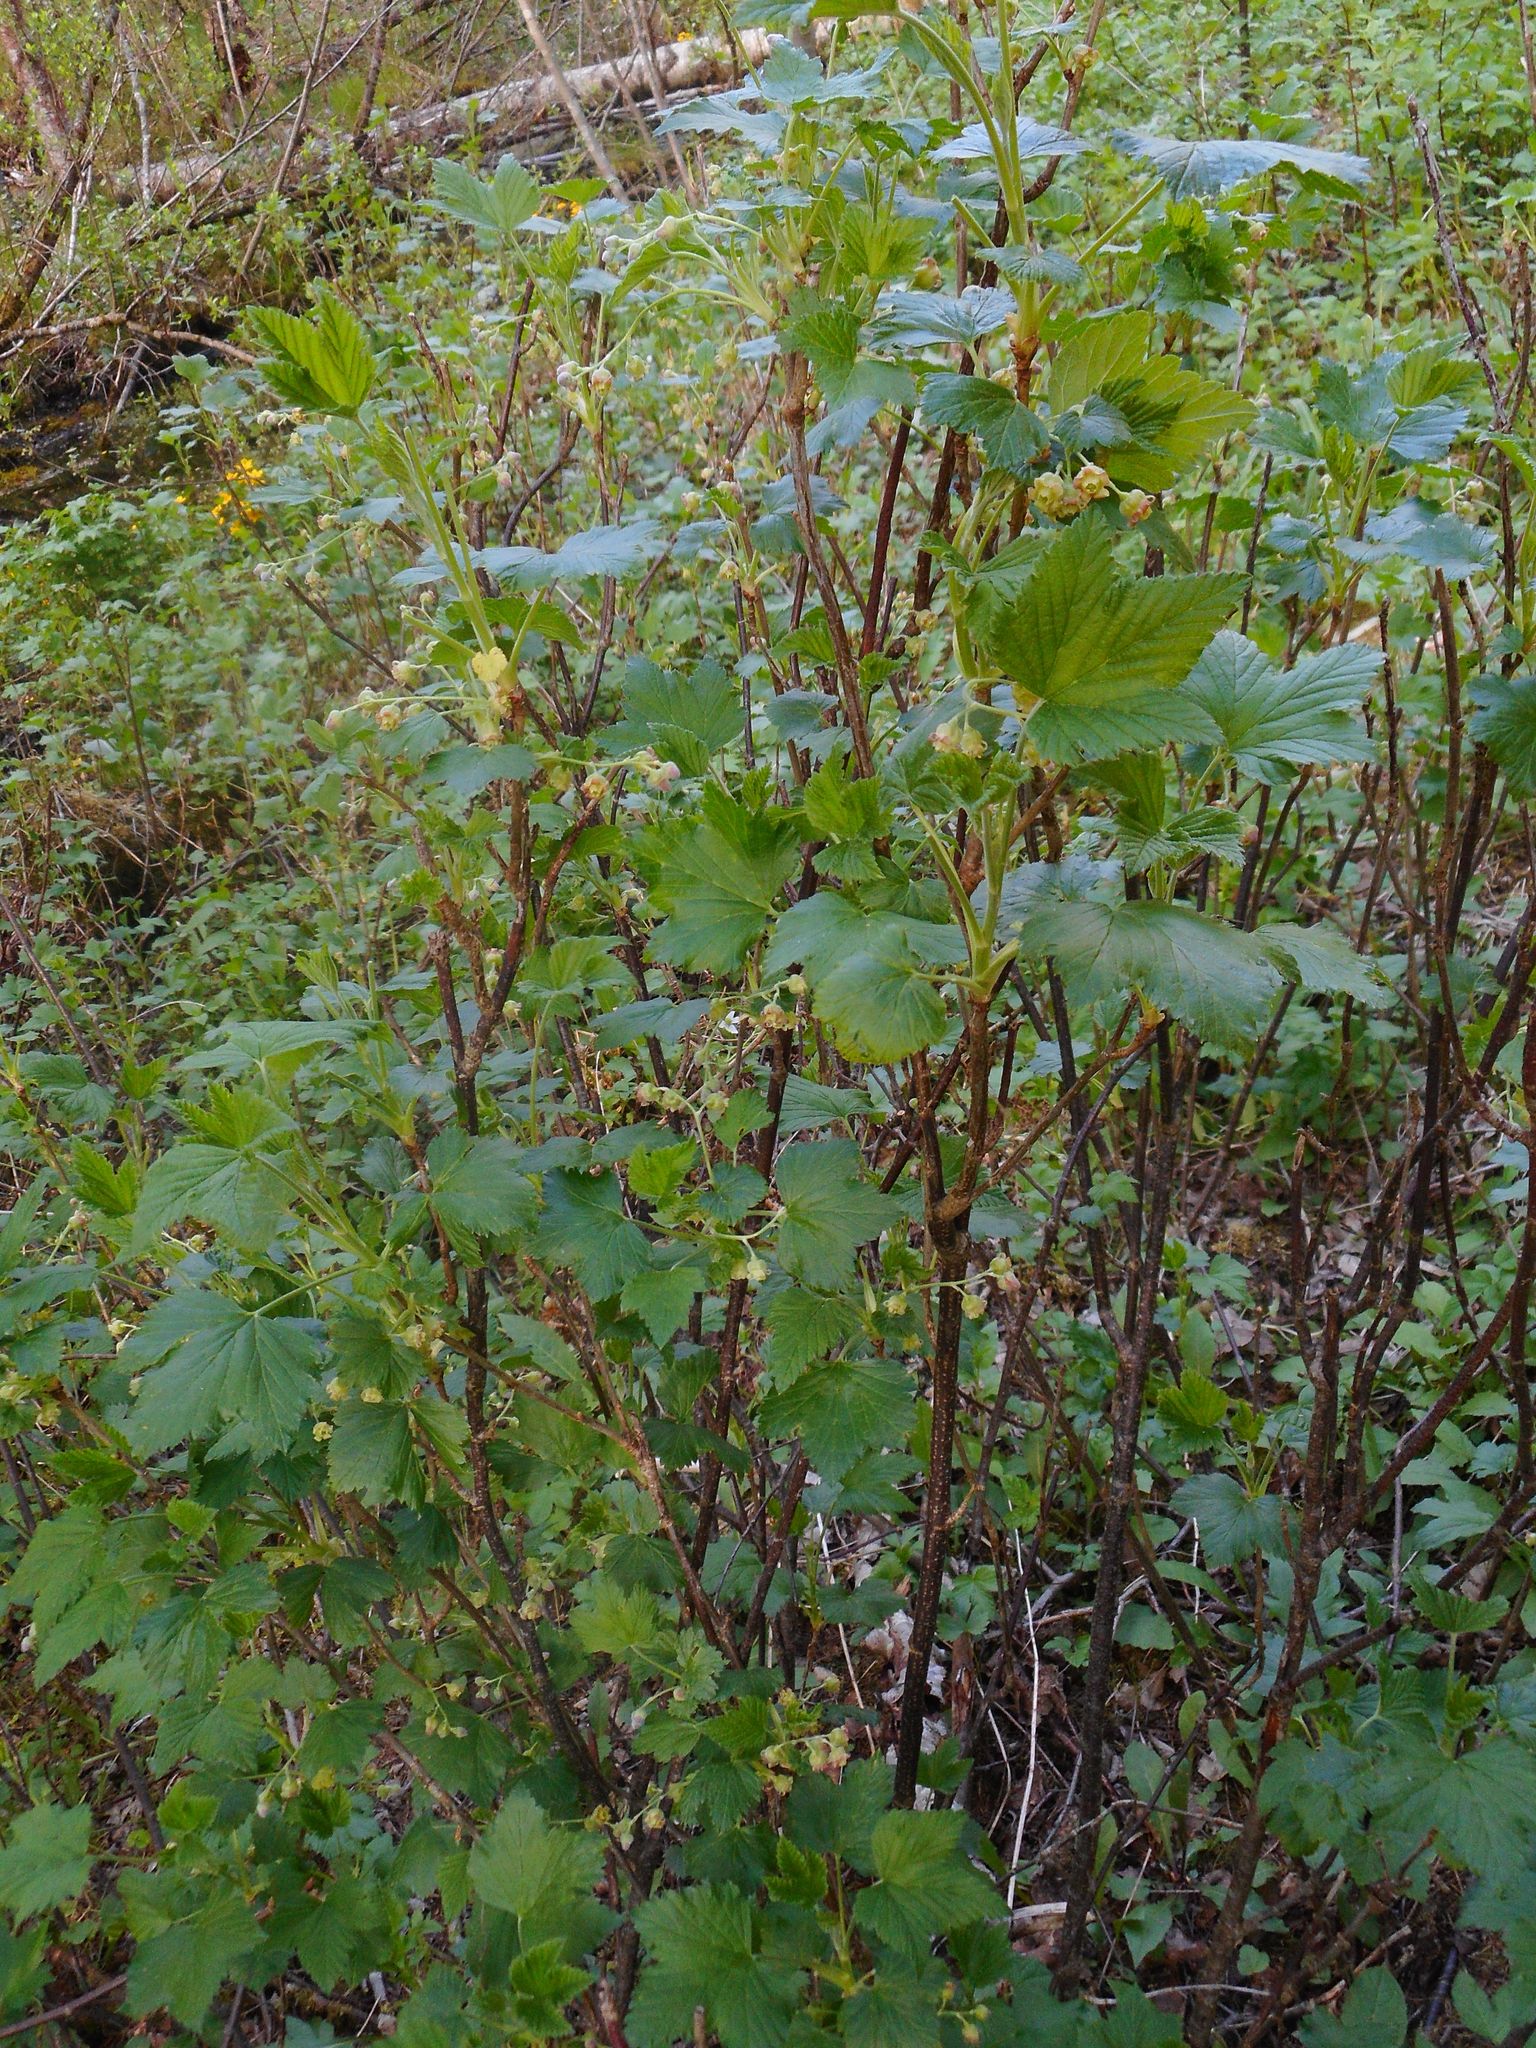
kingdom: Plantae
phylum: Tracheophyta
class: Magnoliopsida
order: Saxifragales
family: Grossulariaceae
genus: Ribes
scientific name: Ribes nigrum
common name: Black currant
